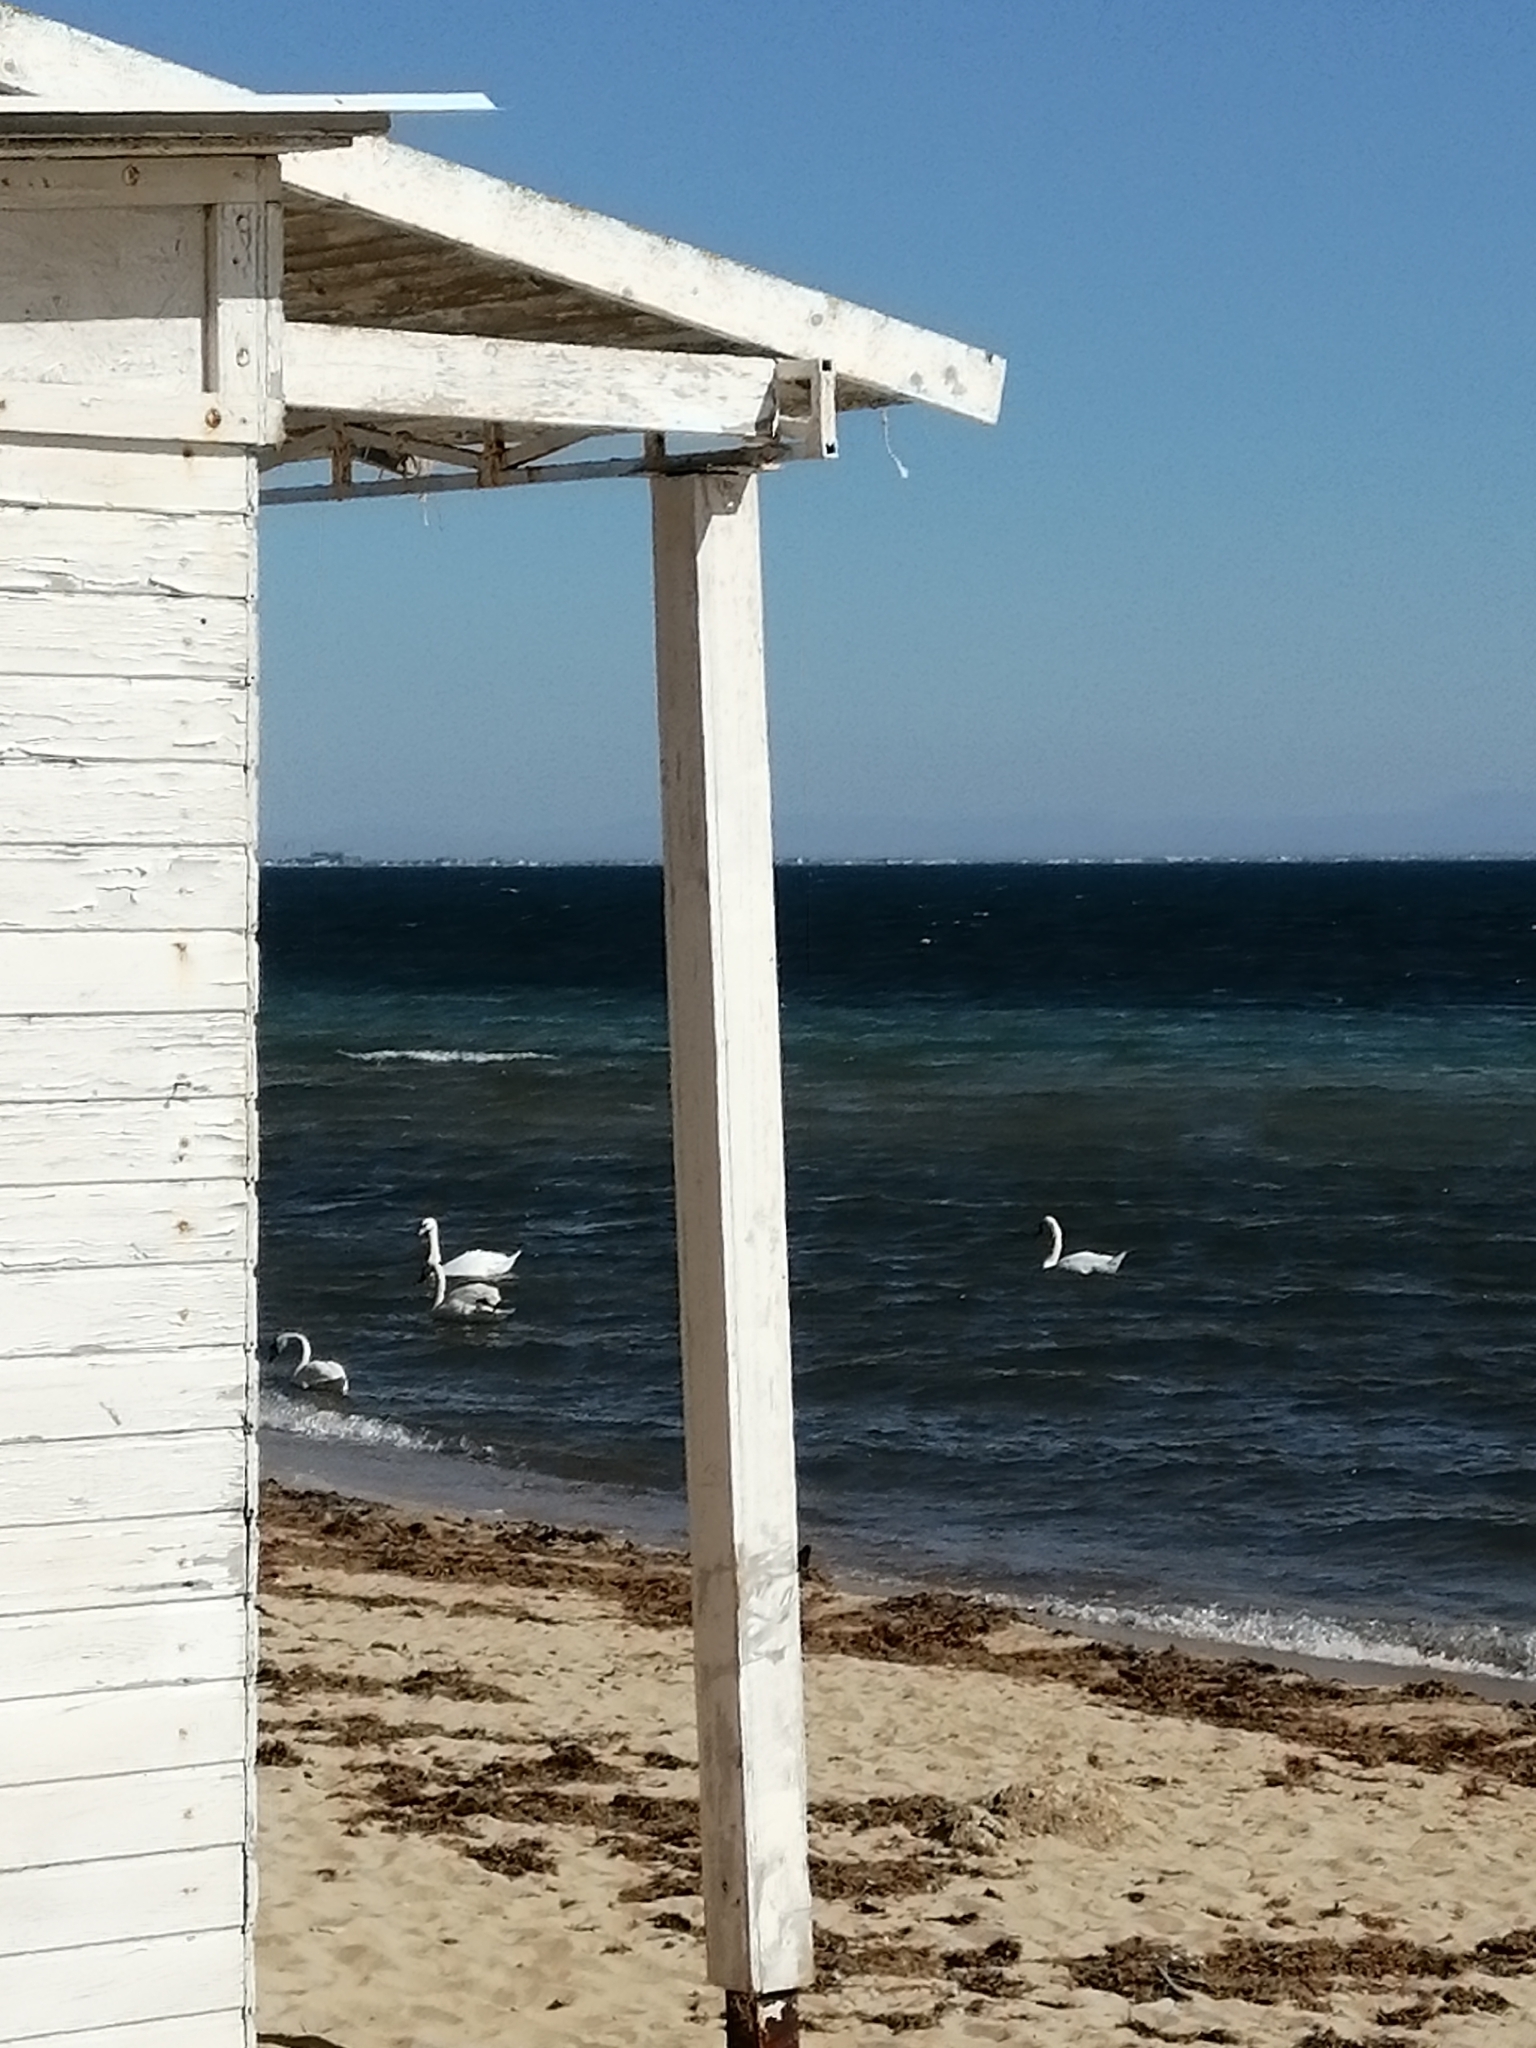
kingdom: Animalia
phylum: Chordata
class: Aves
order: Anseriformes
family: Anatidae
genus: Cygnus
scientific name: Cygnus olor
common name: Mute swan
